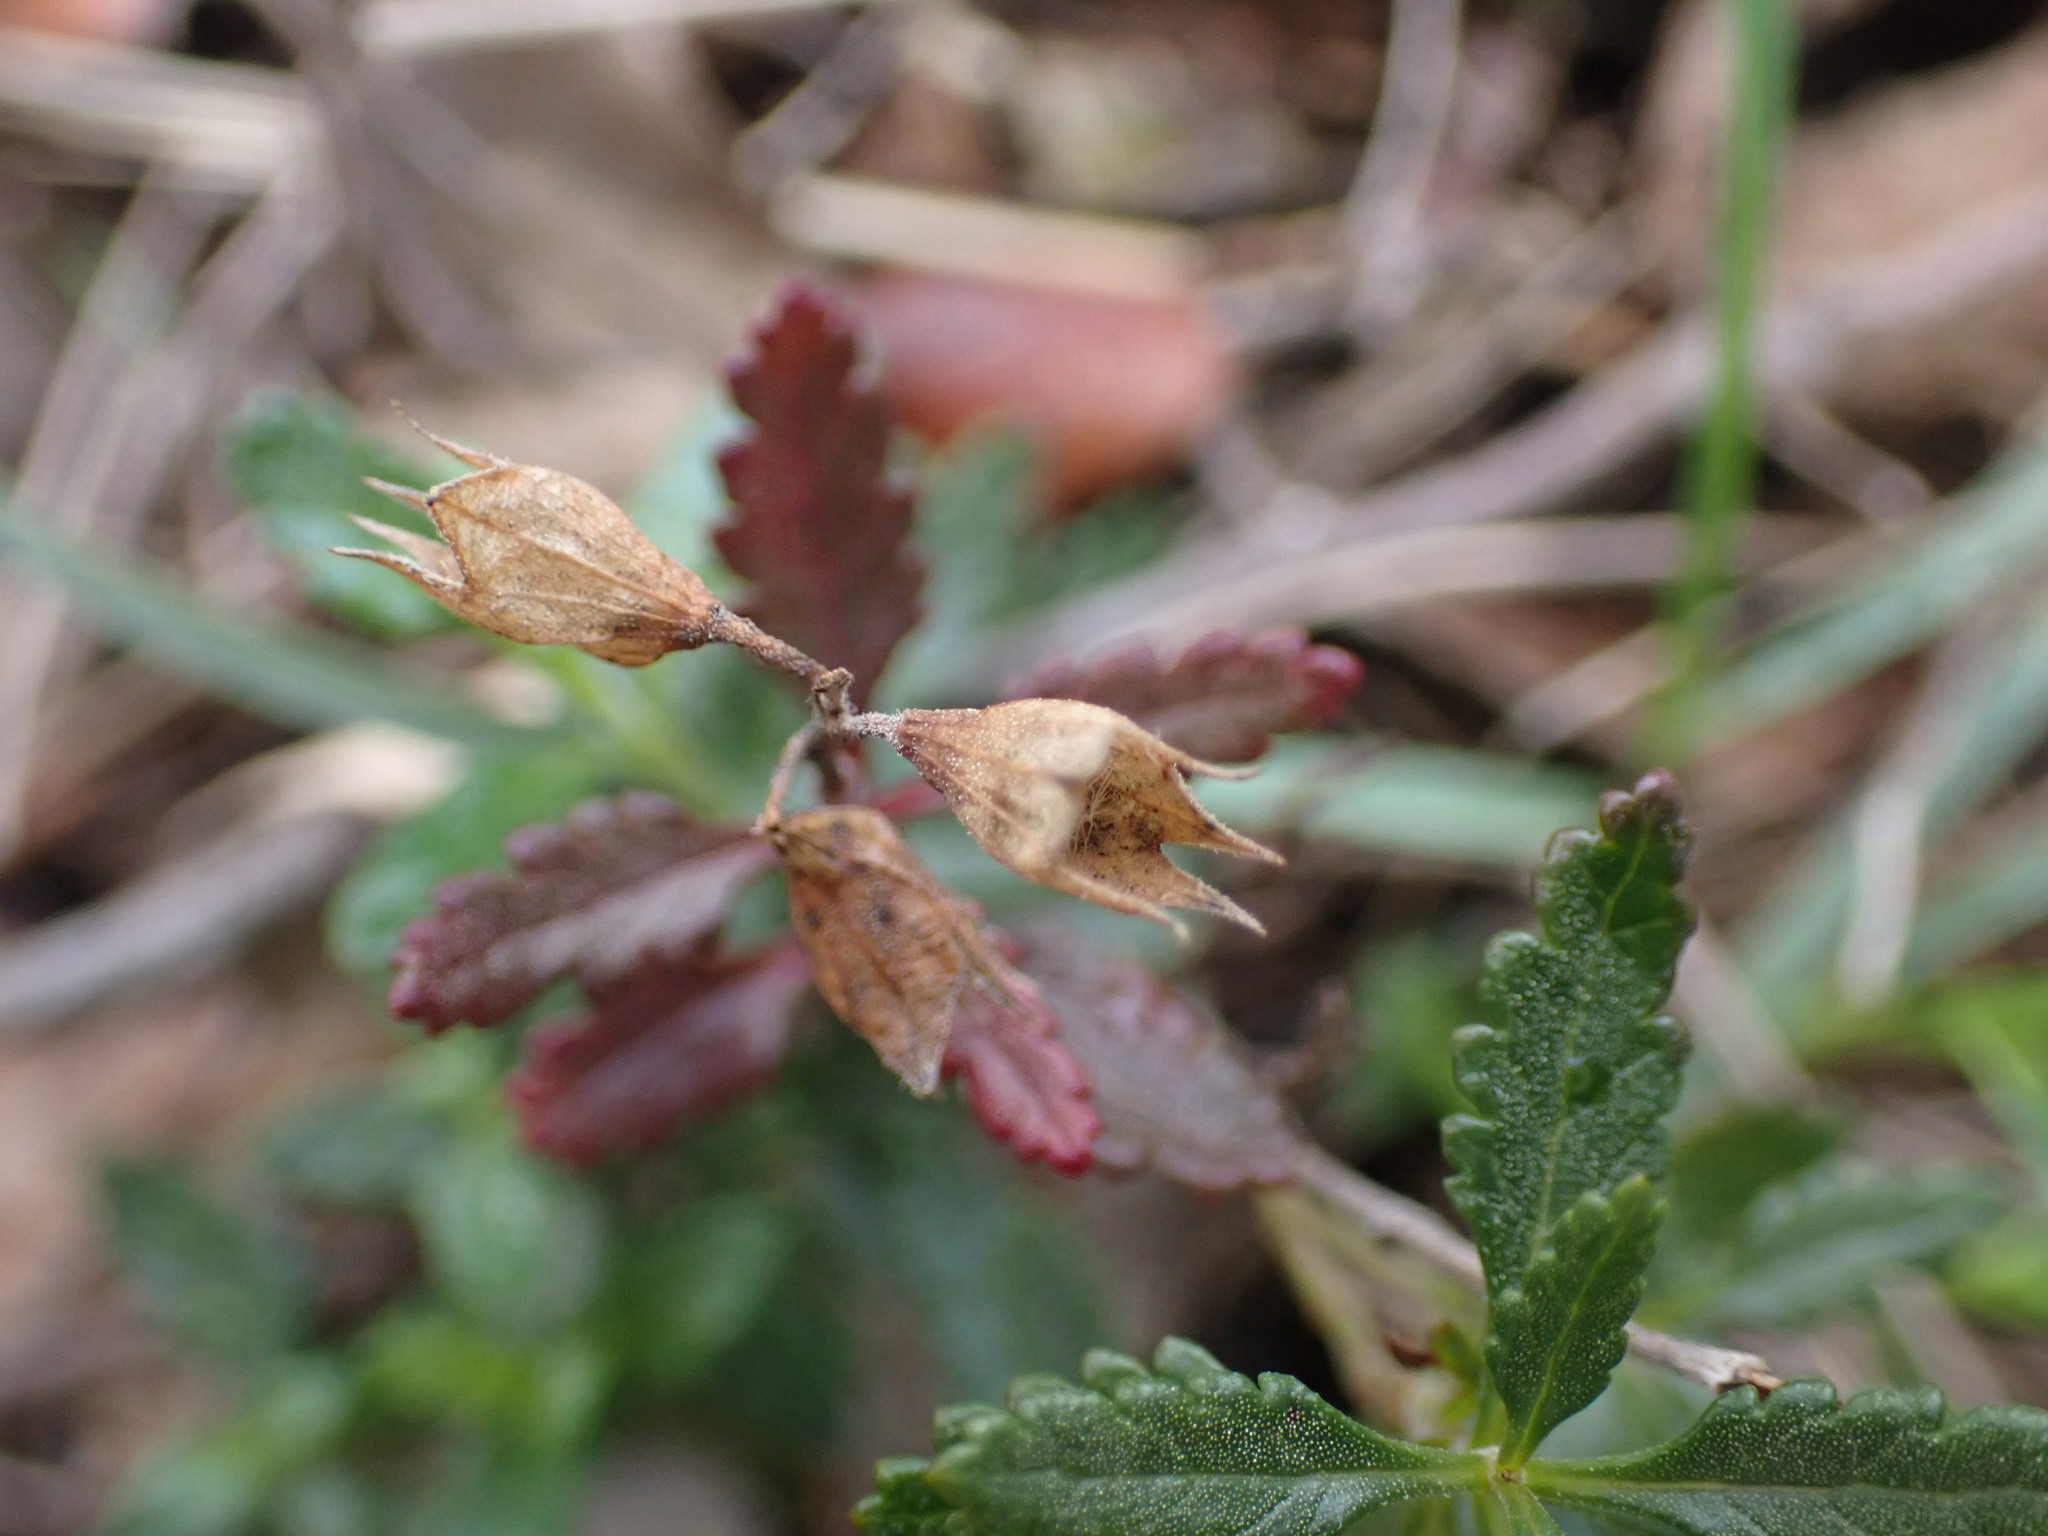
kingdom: Plantae
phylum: Tracheophyta
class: Magnoliopsida
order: Lamiales
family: Lamiaceae
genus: Teucrium
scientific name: Teucrium chamaedrys
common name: Wall germander
